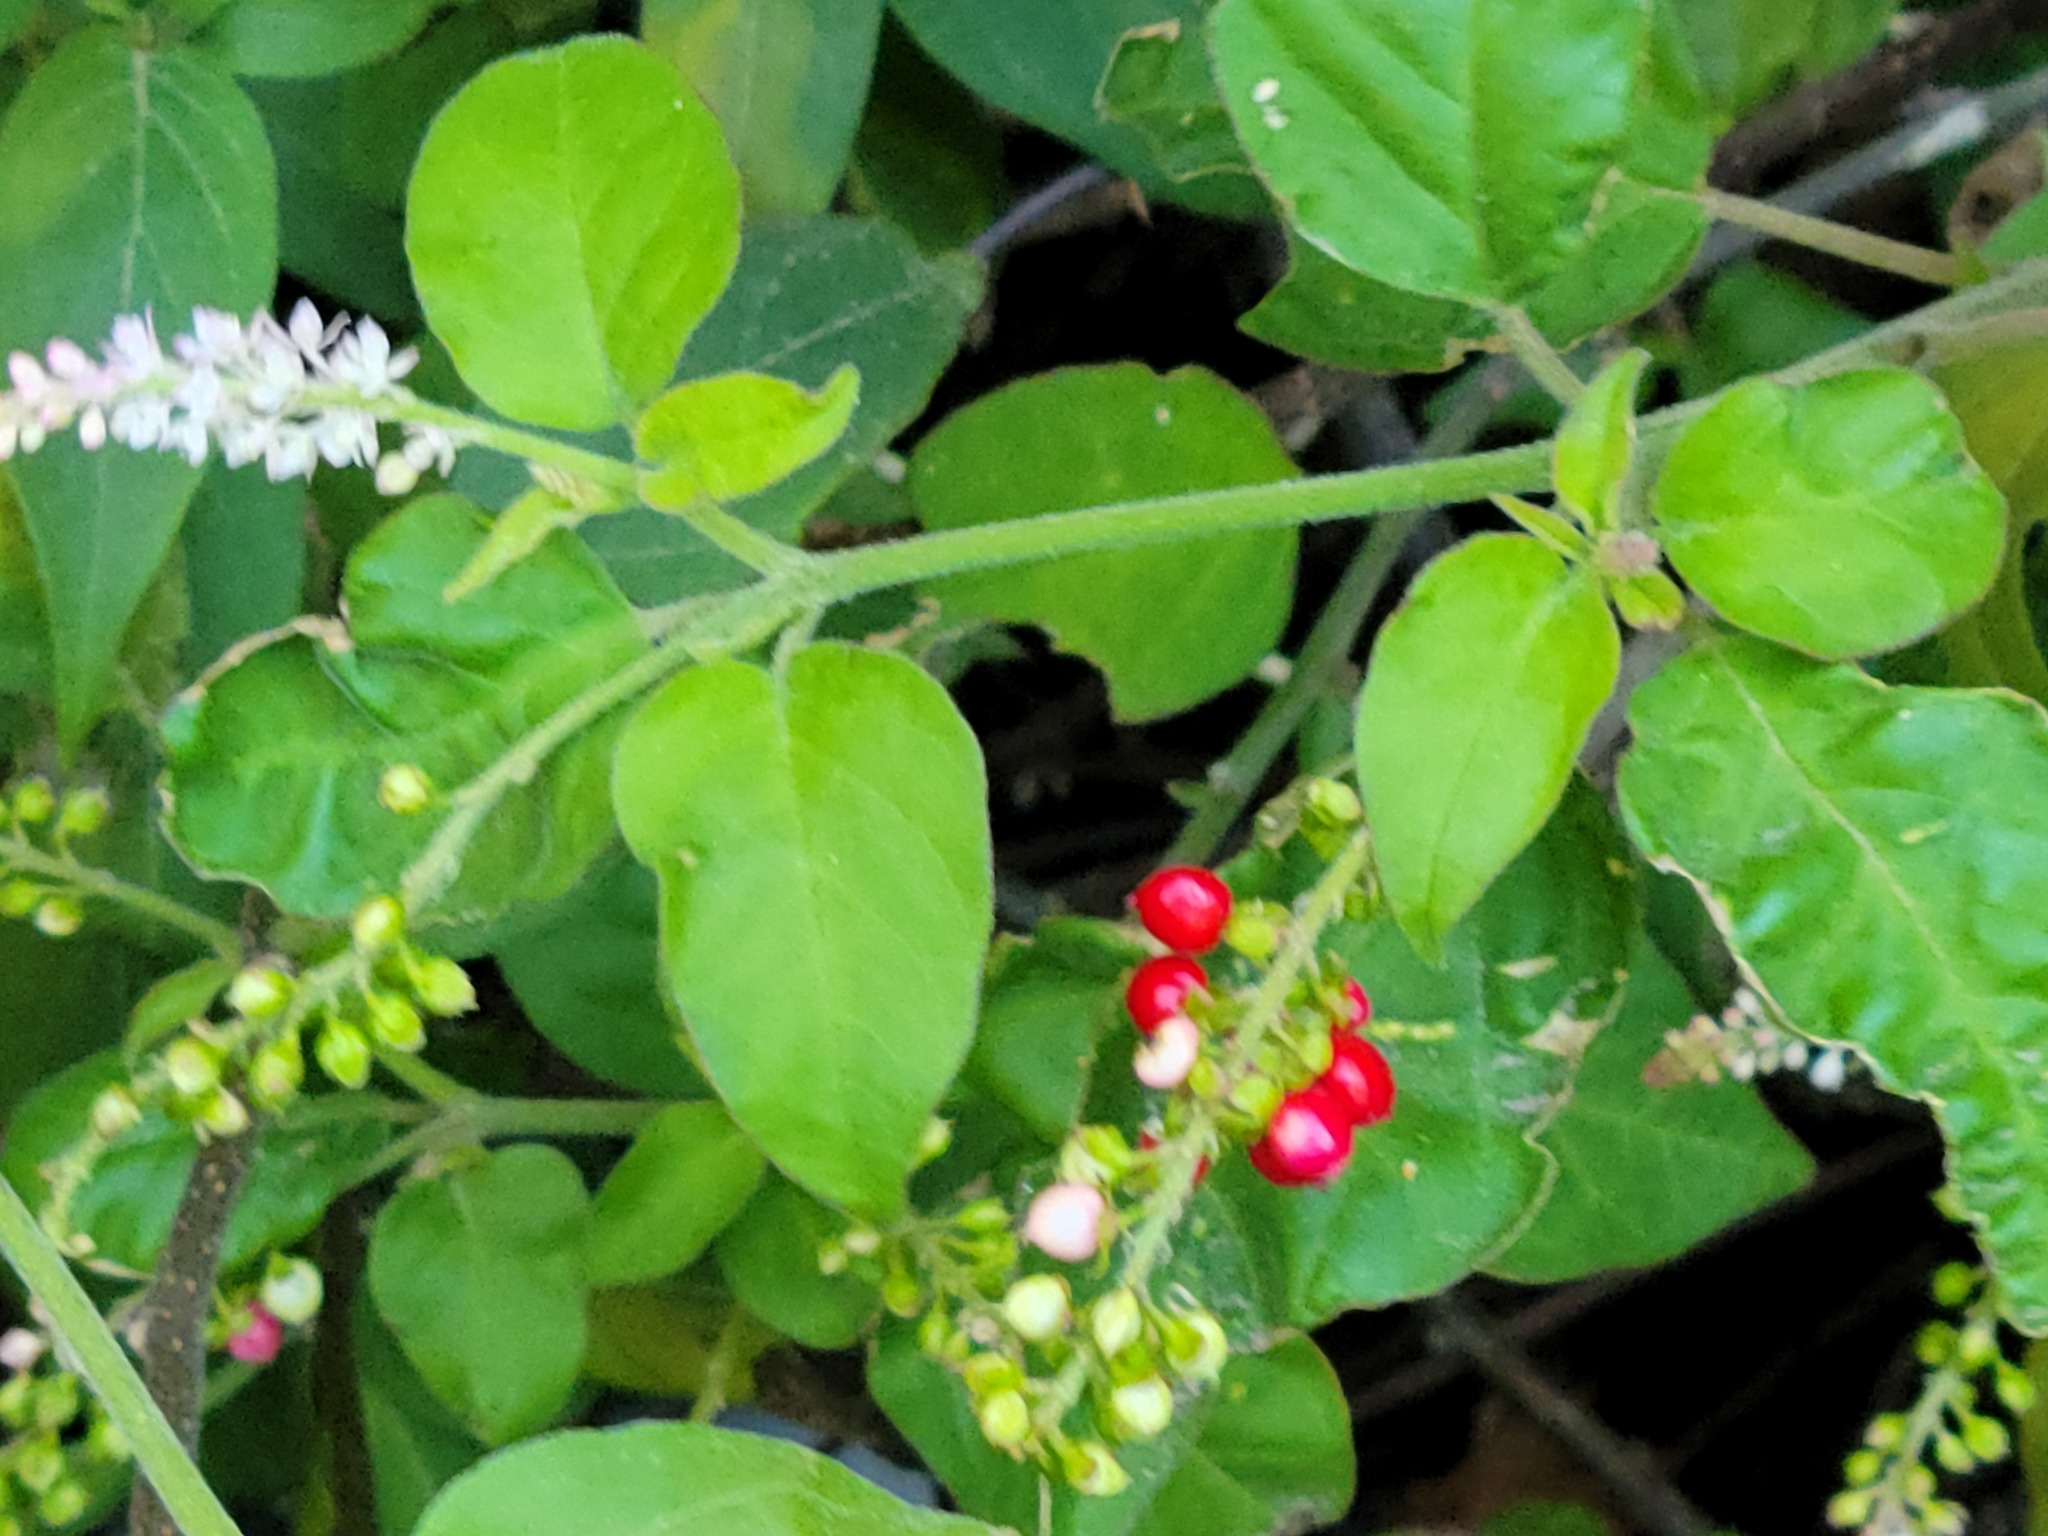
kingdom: Plantae
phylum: Tracheophyta
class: Magnoliopsida
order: Caryophyllales
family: Phytolaccaceae
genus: Rivina
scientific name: Rivina humilis
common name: Rougeplant
